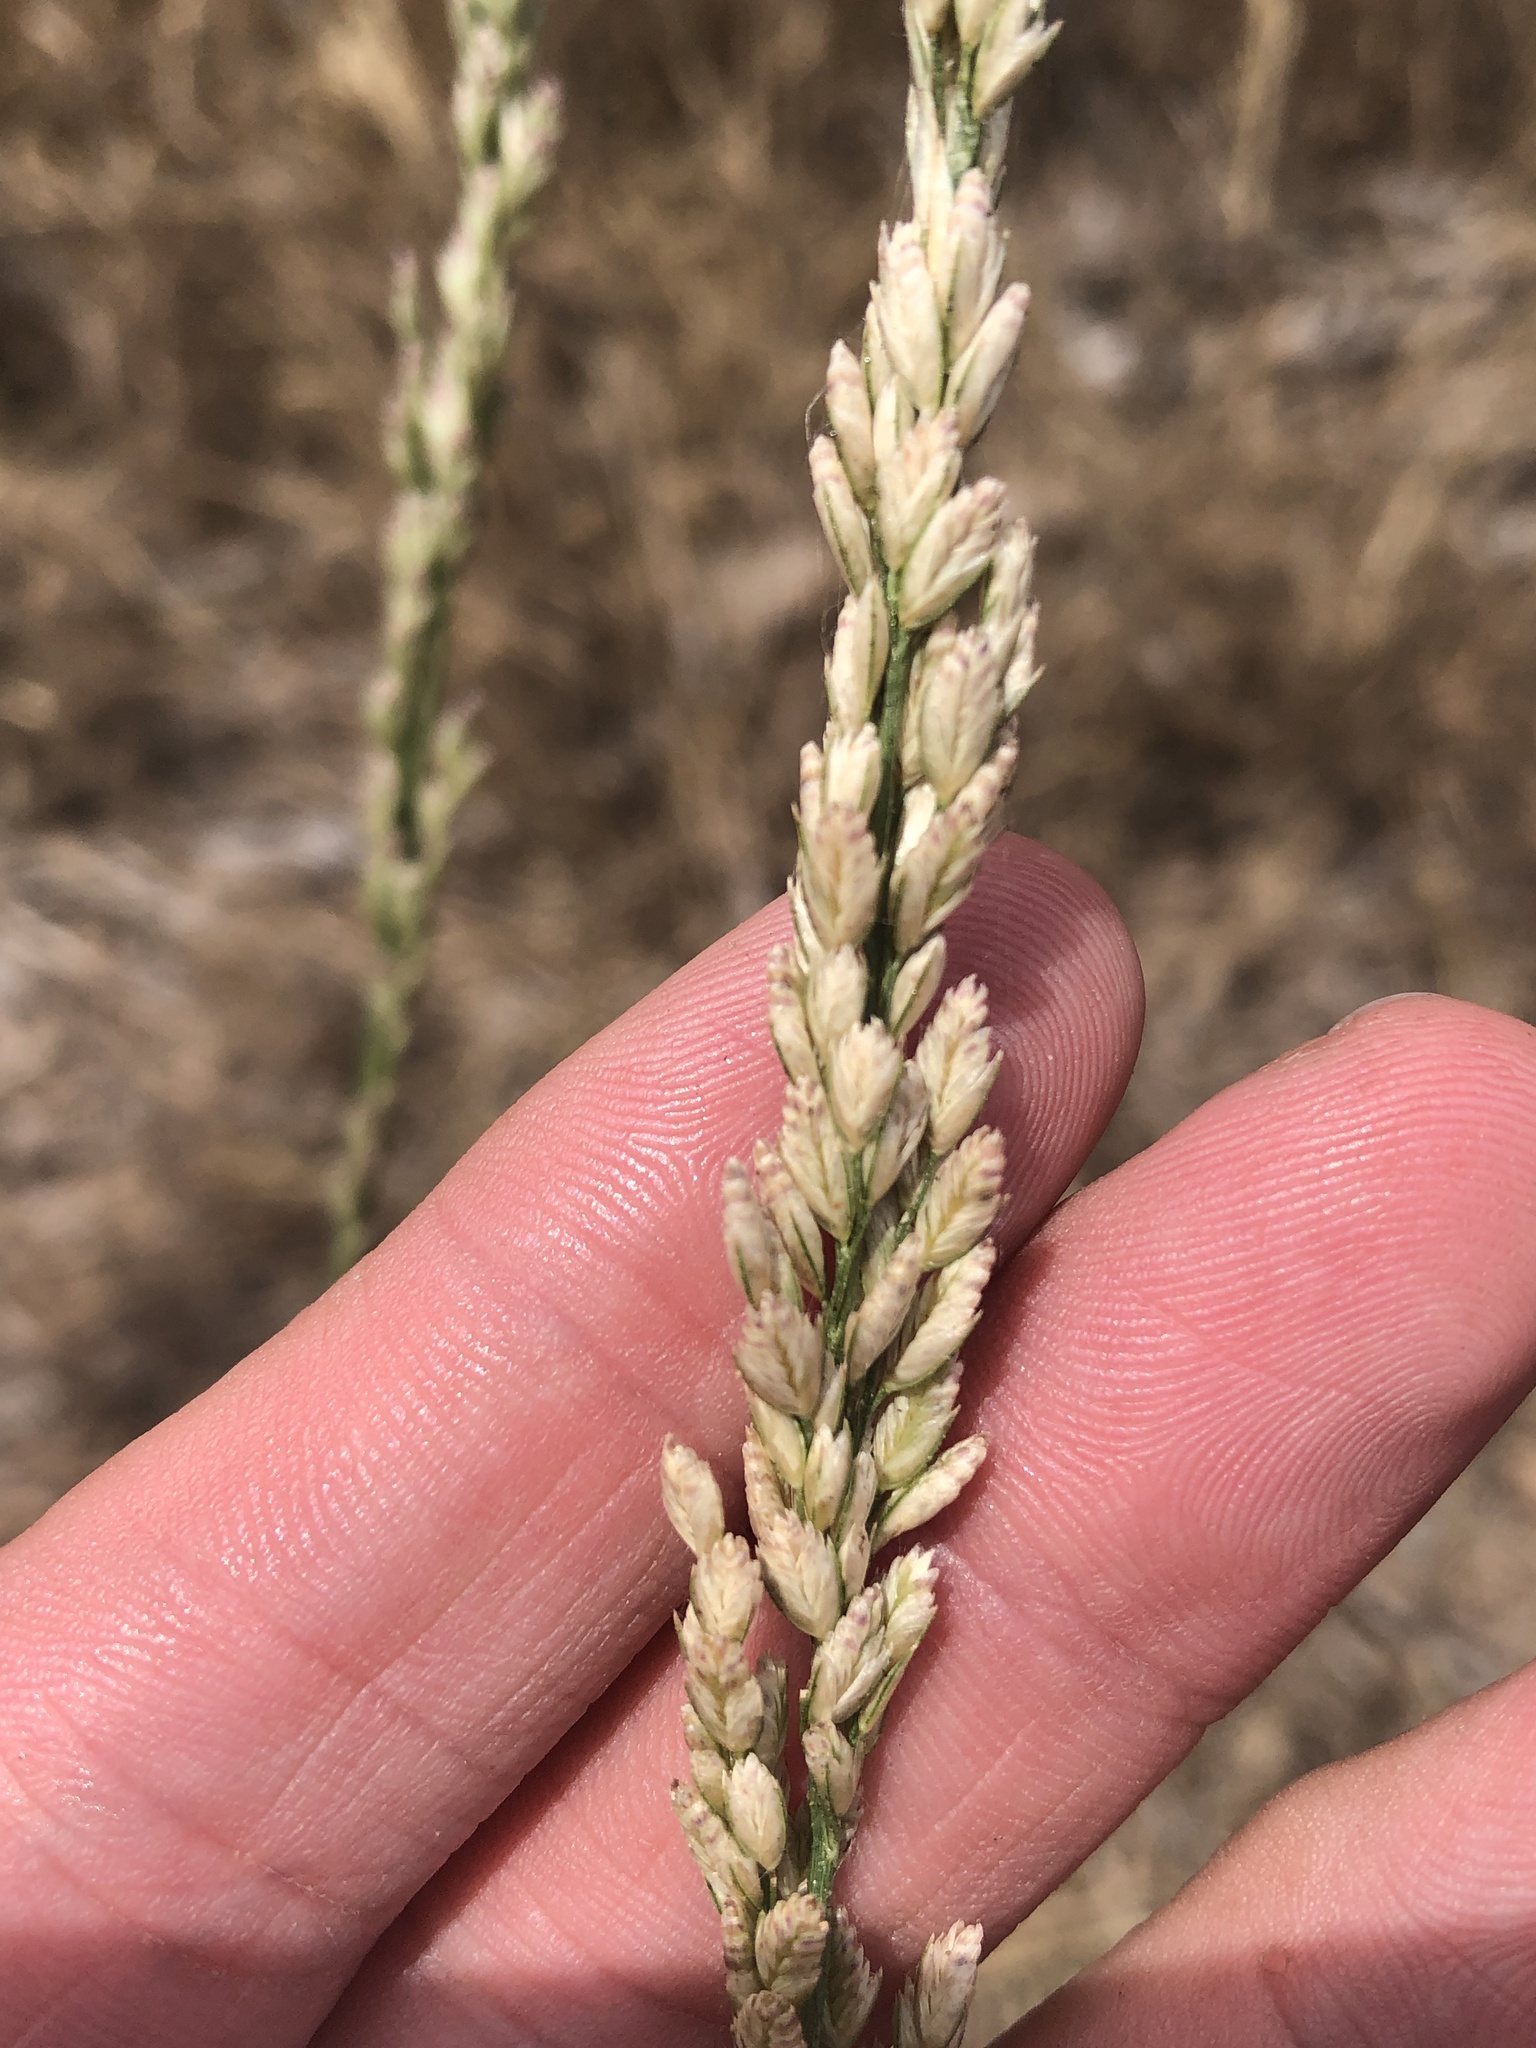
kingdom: Plantae
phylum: Tracheophyta
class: Liliopsida
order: Poales
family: Poaceae
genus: Tridens
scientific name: Tridens albescens
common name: White tridens
